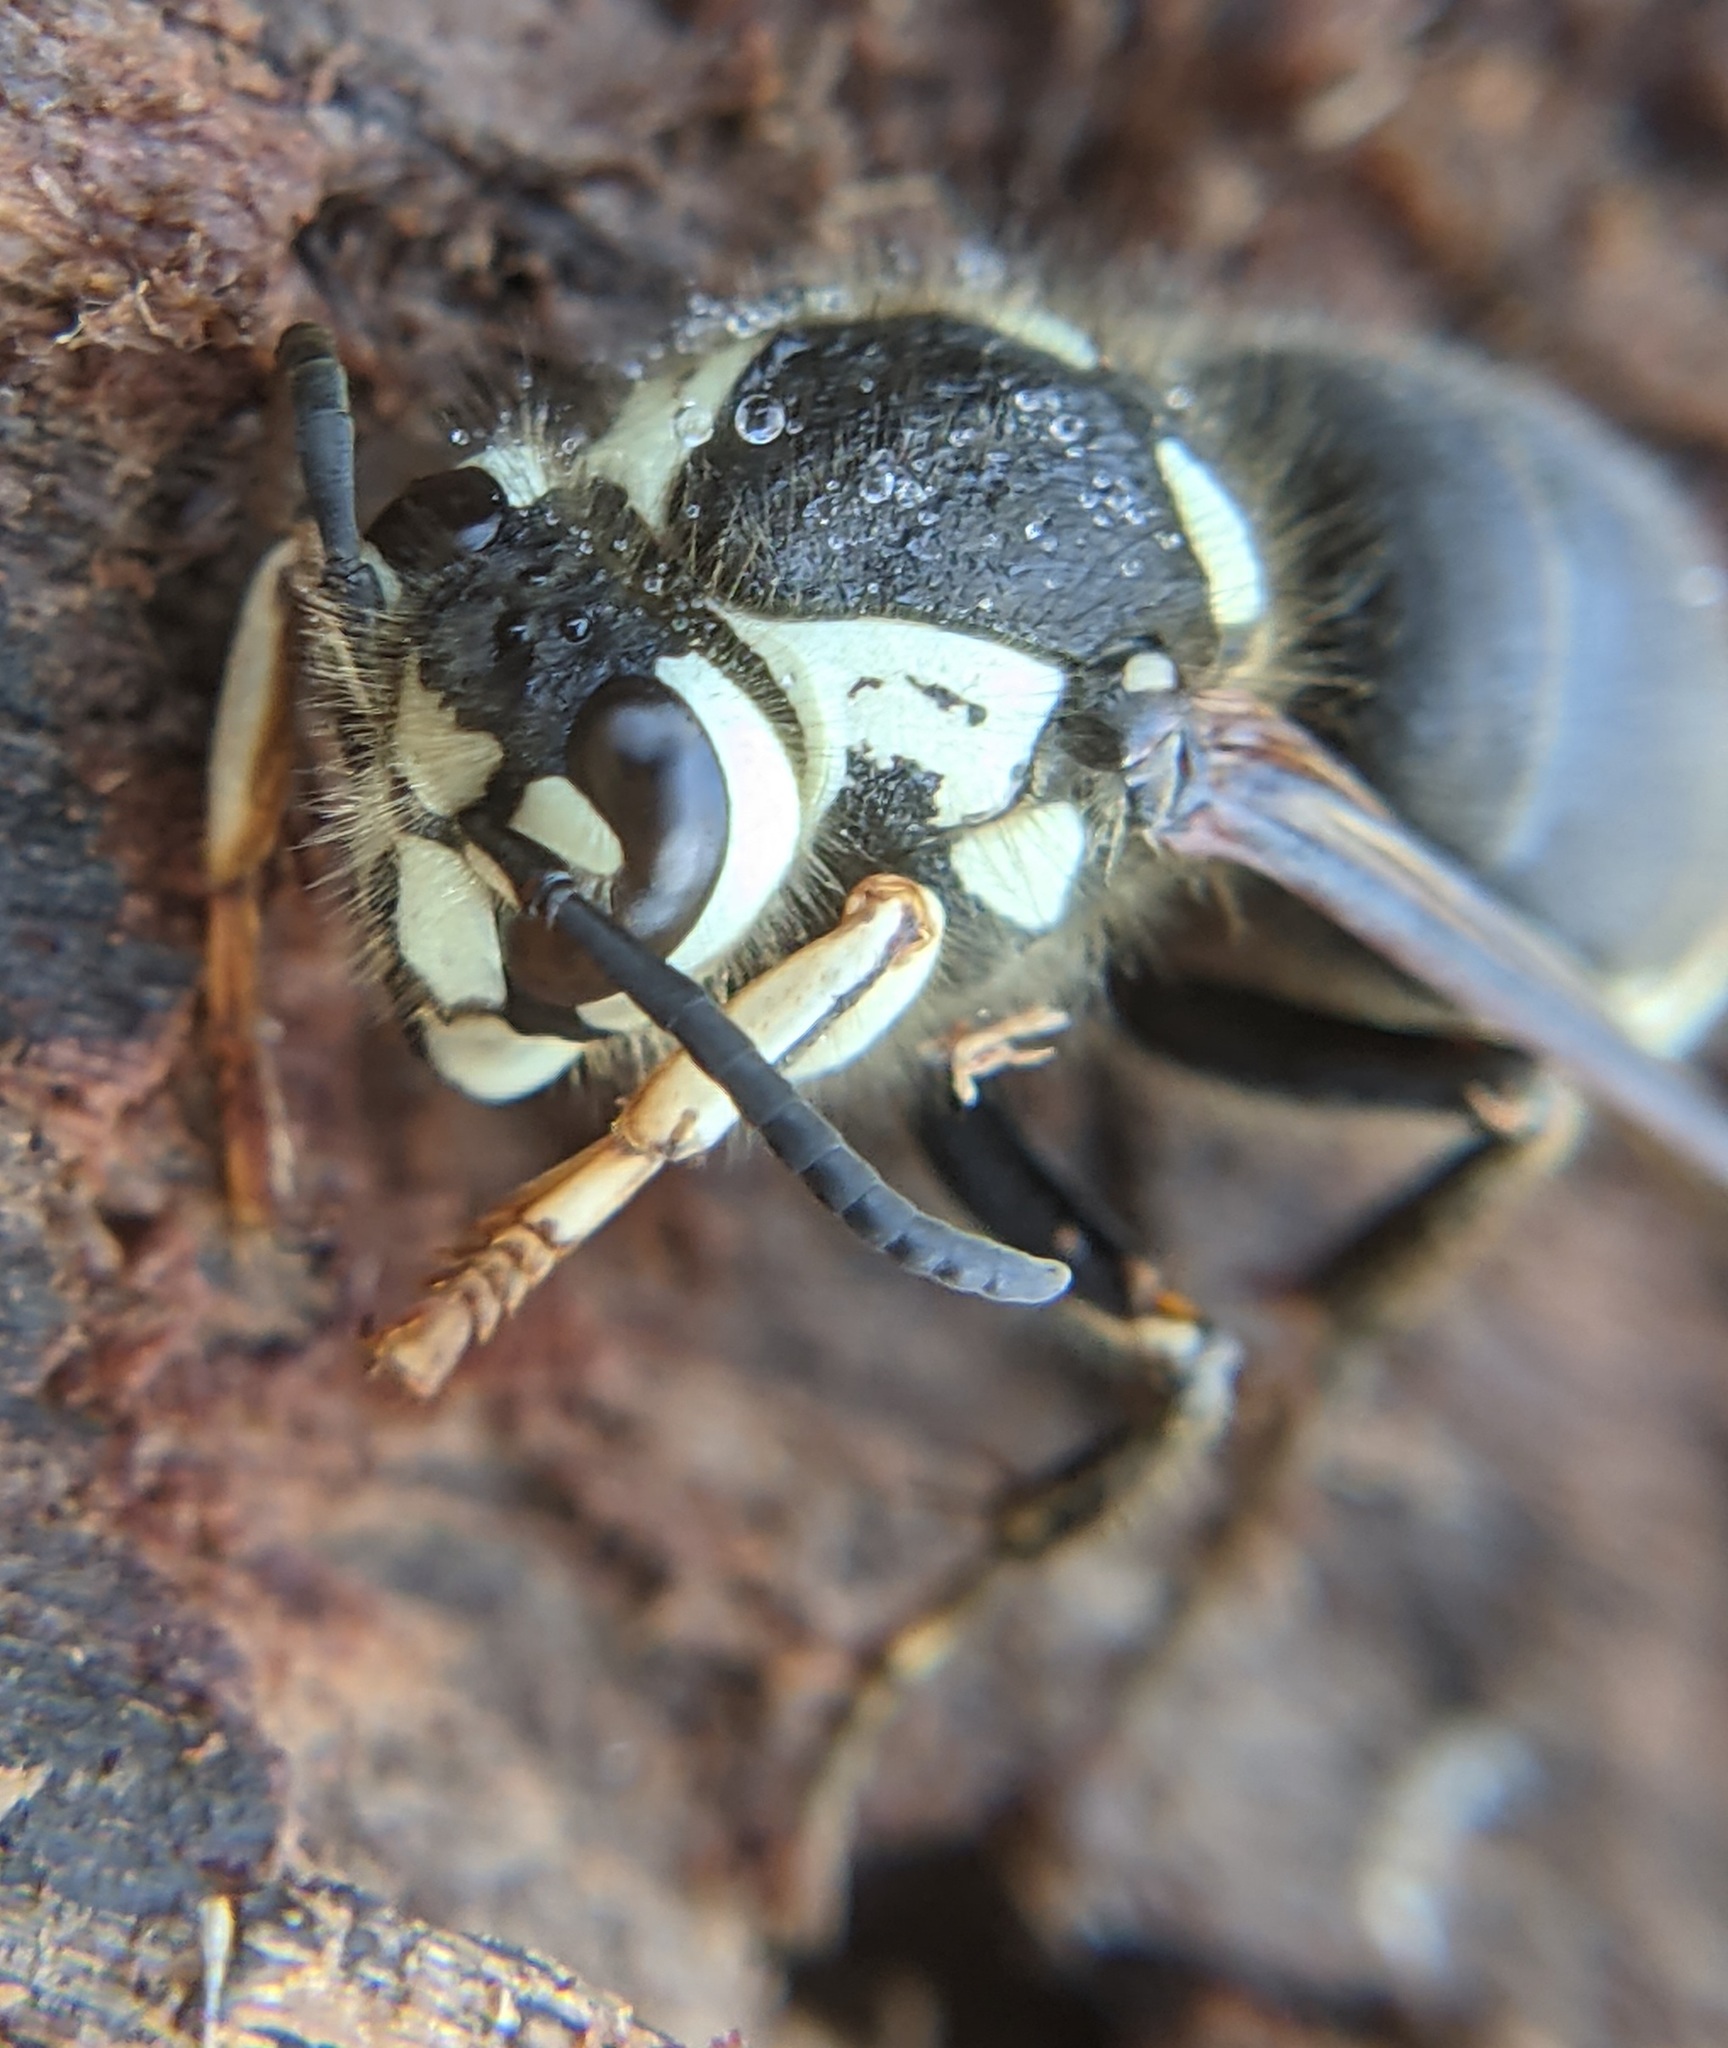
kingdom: Animalia
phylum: Arthropoda
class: Insecta
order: Hymenoptera
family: Vespidae
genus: Dolichovespula
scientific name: Dolichovespula maculata
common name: Bald-faced hornet
